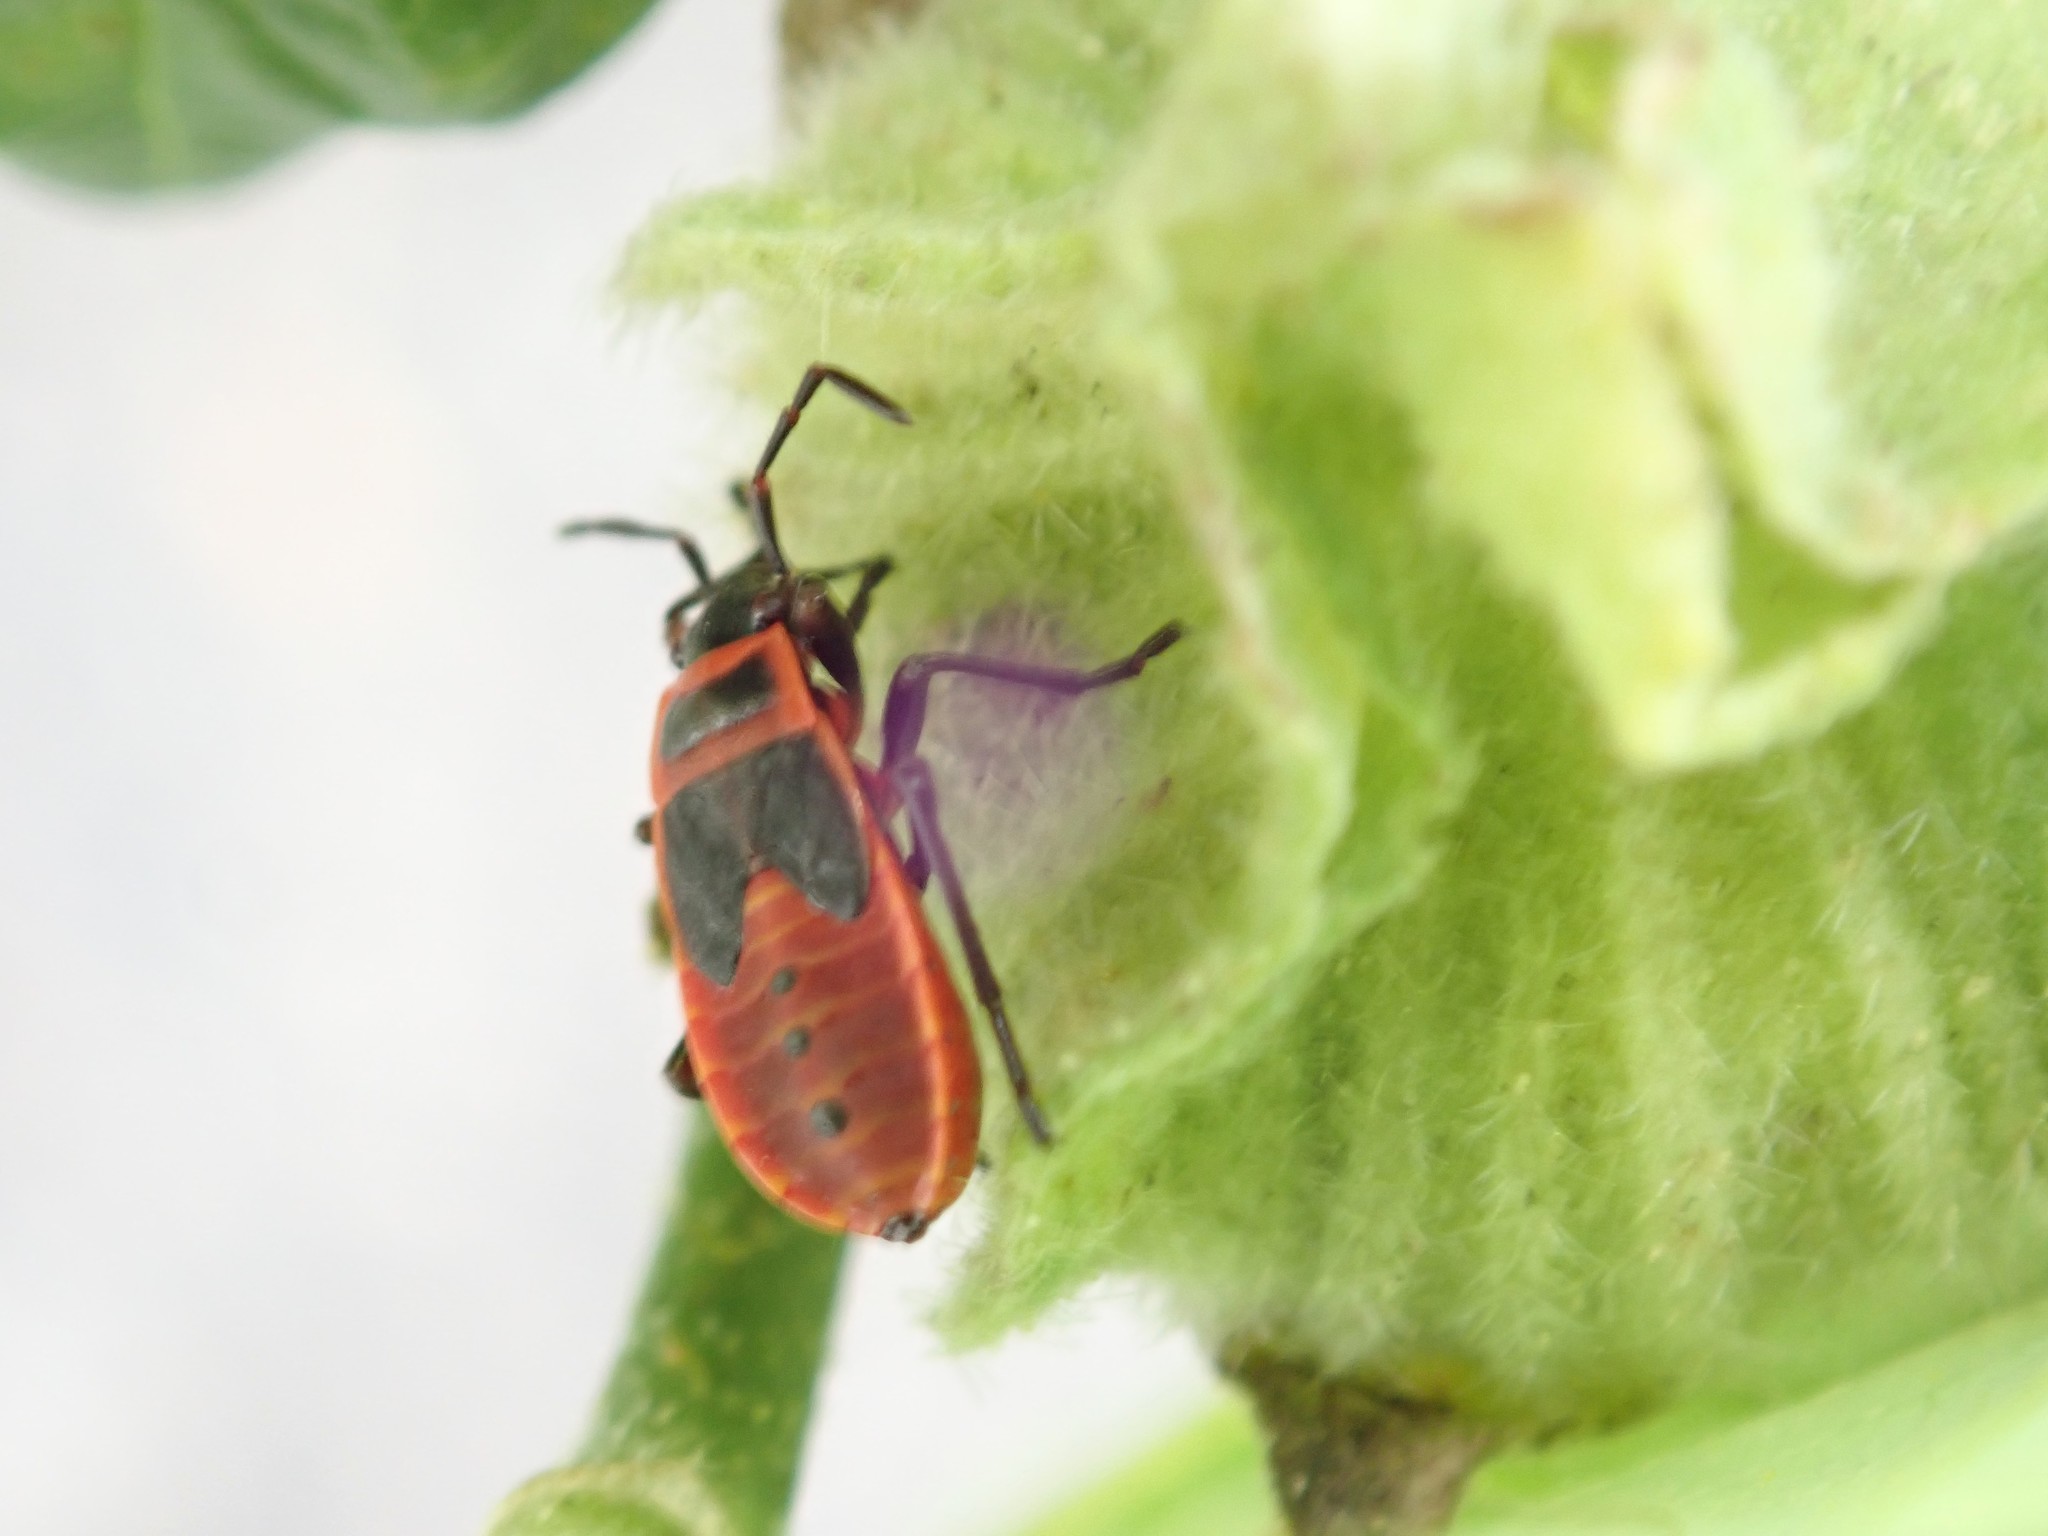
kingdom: Animalia
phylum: Arthropoda
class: Insecta
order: Hemiptera
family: Pyrrhocoridae
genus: Pyrrhocoris
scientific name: Pyrrhocoris apterus
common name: Firebug
